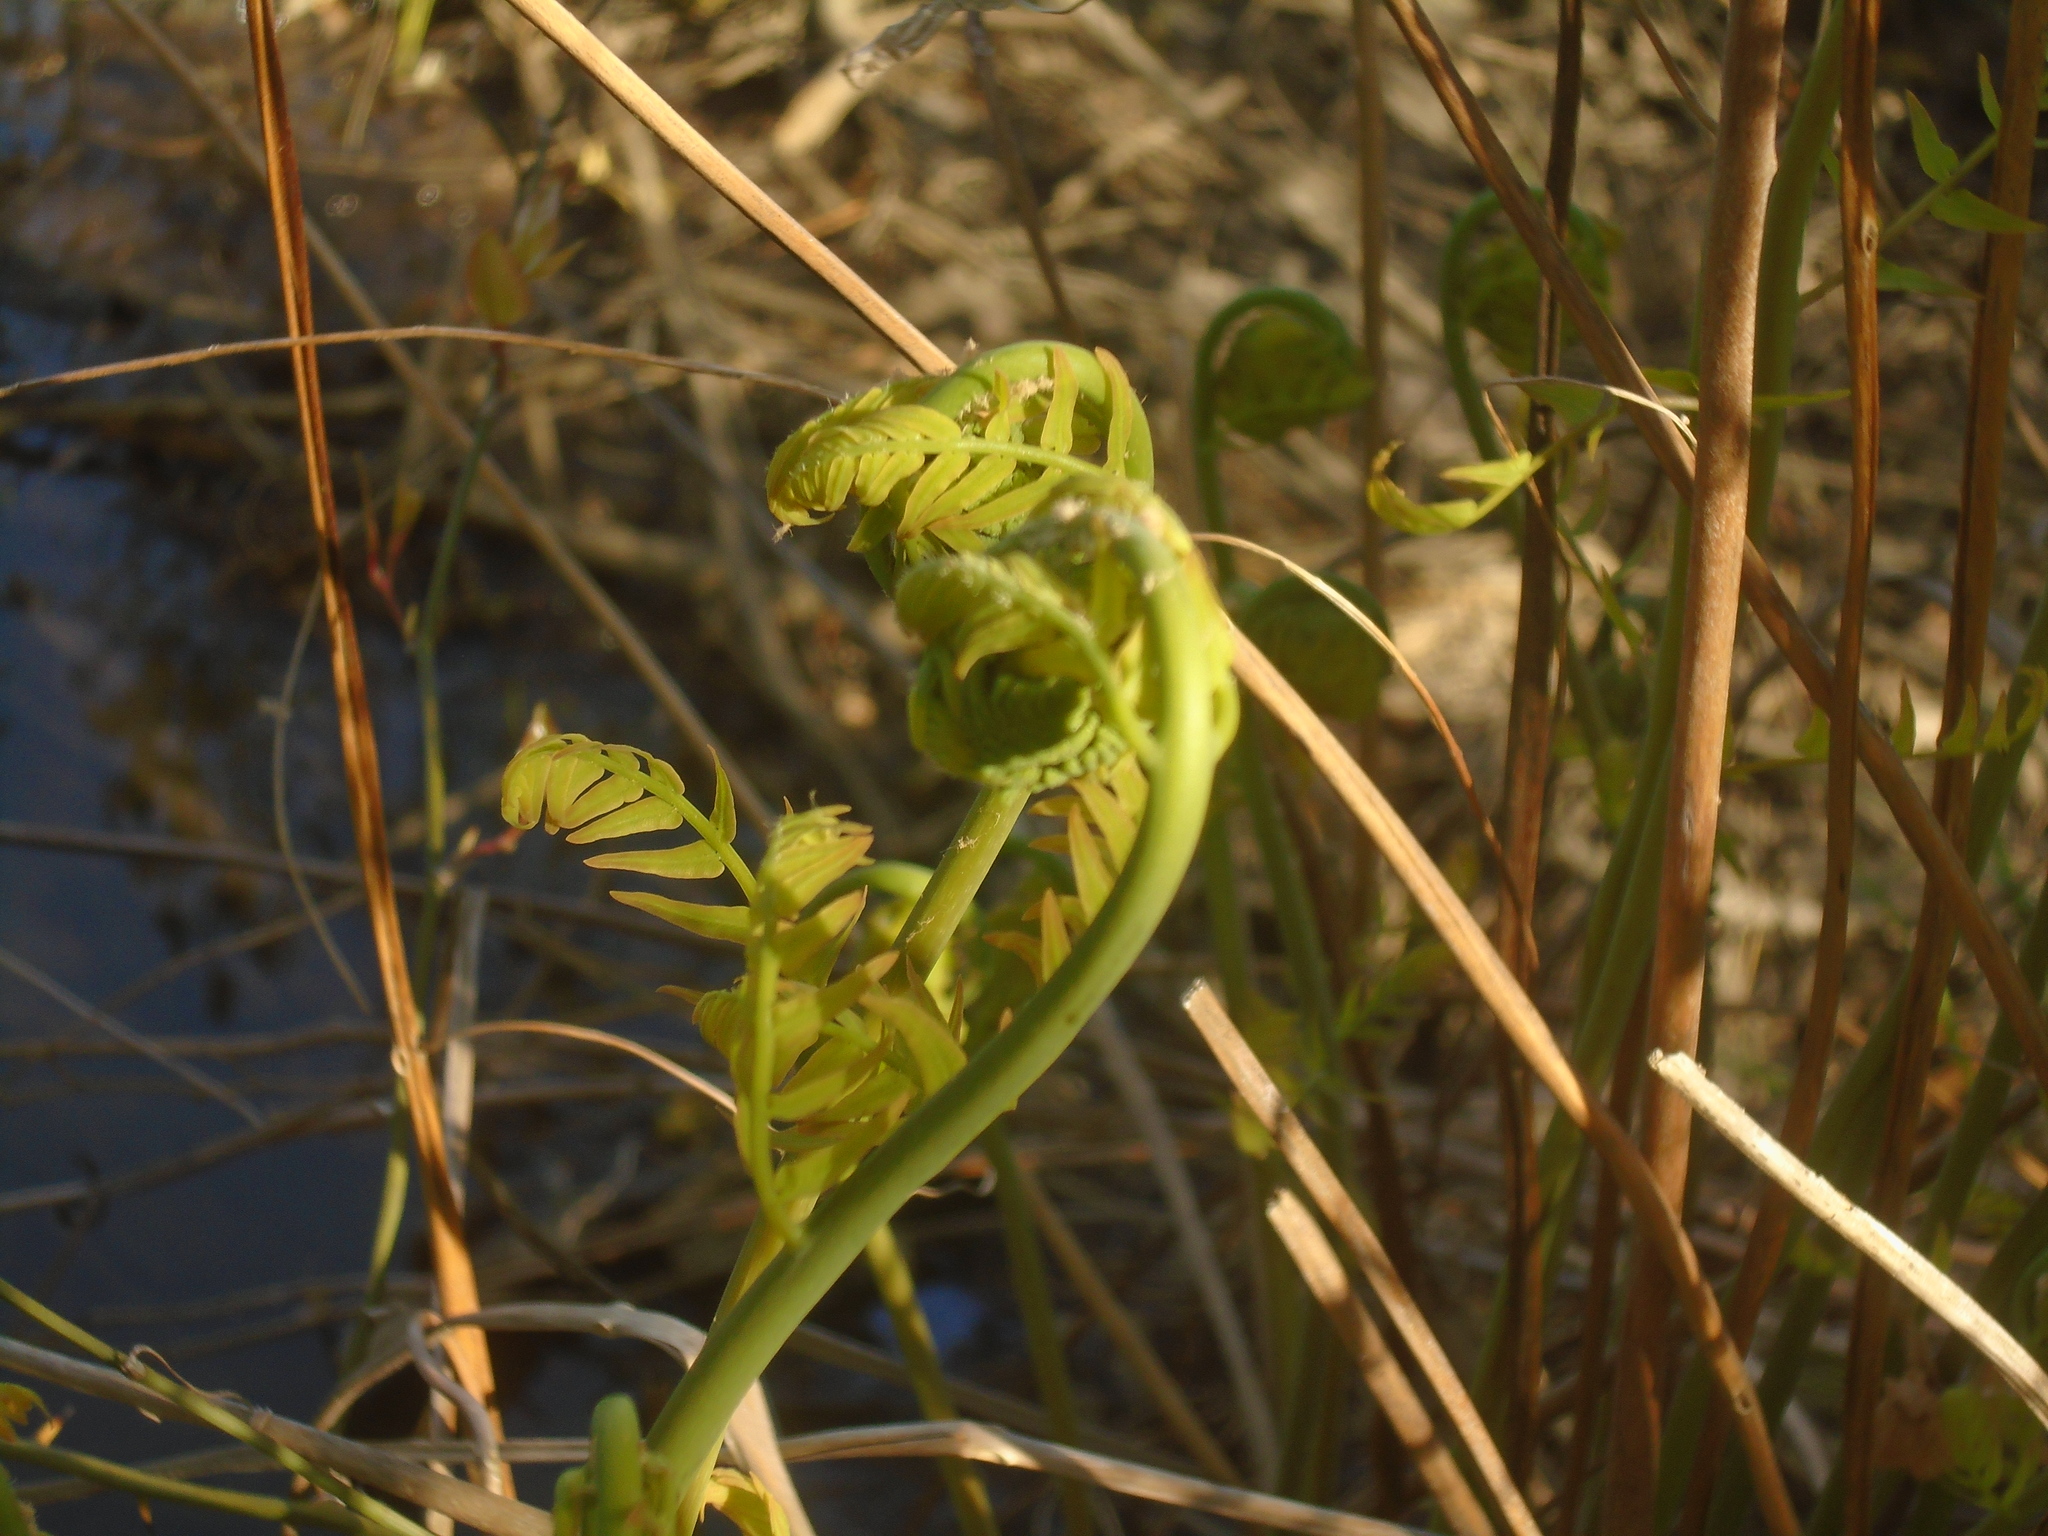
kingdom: Plantae
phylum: Tracheophyta
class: Polypodiopsida
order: Osmundales
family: Osmundaceae
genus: Osmunda
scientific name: Osmunda spectabilis
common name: American royal fern
